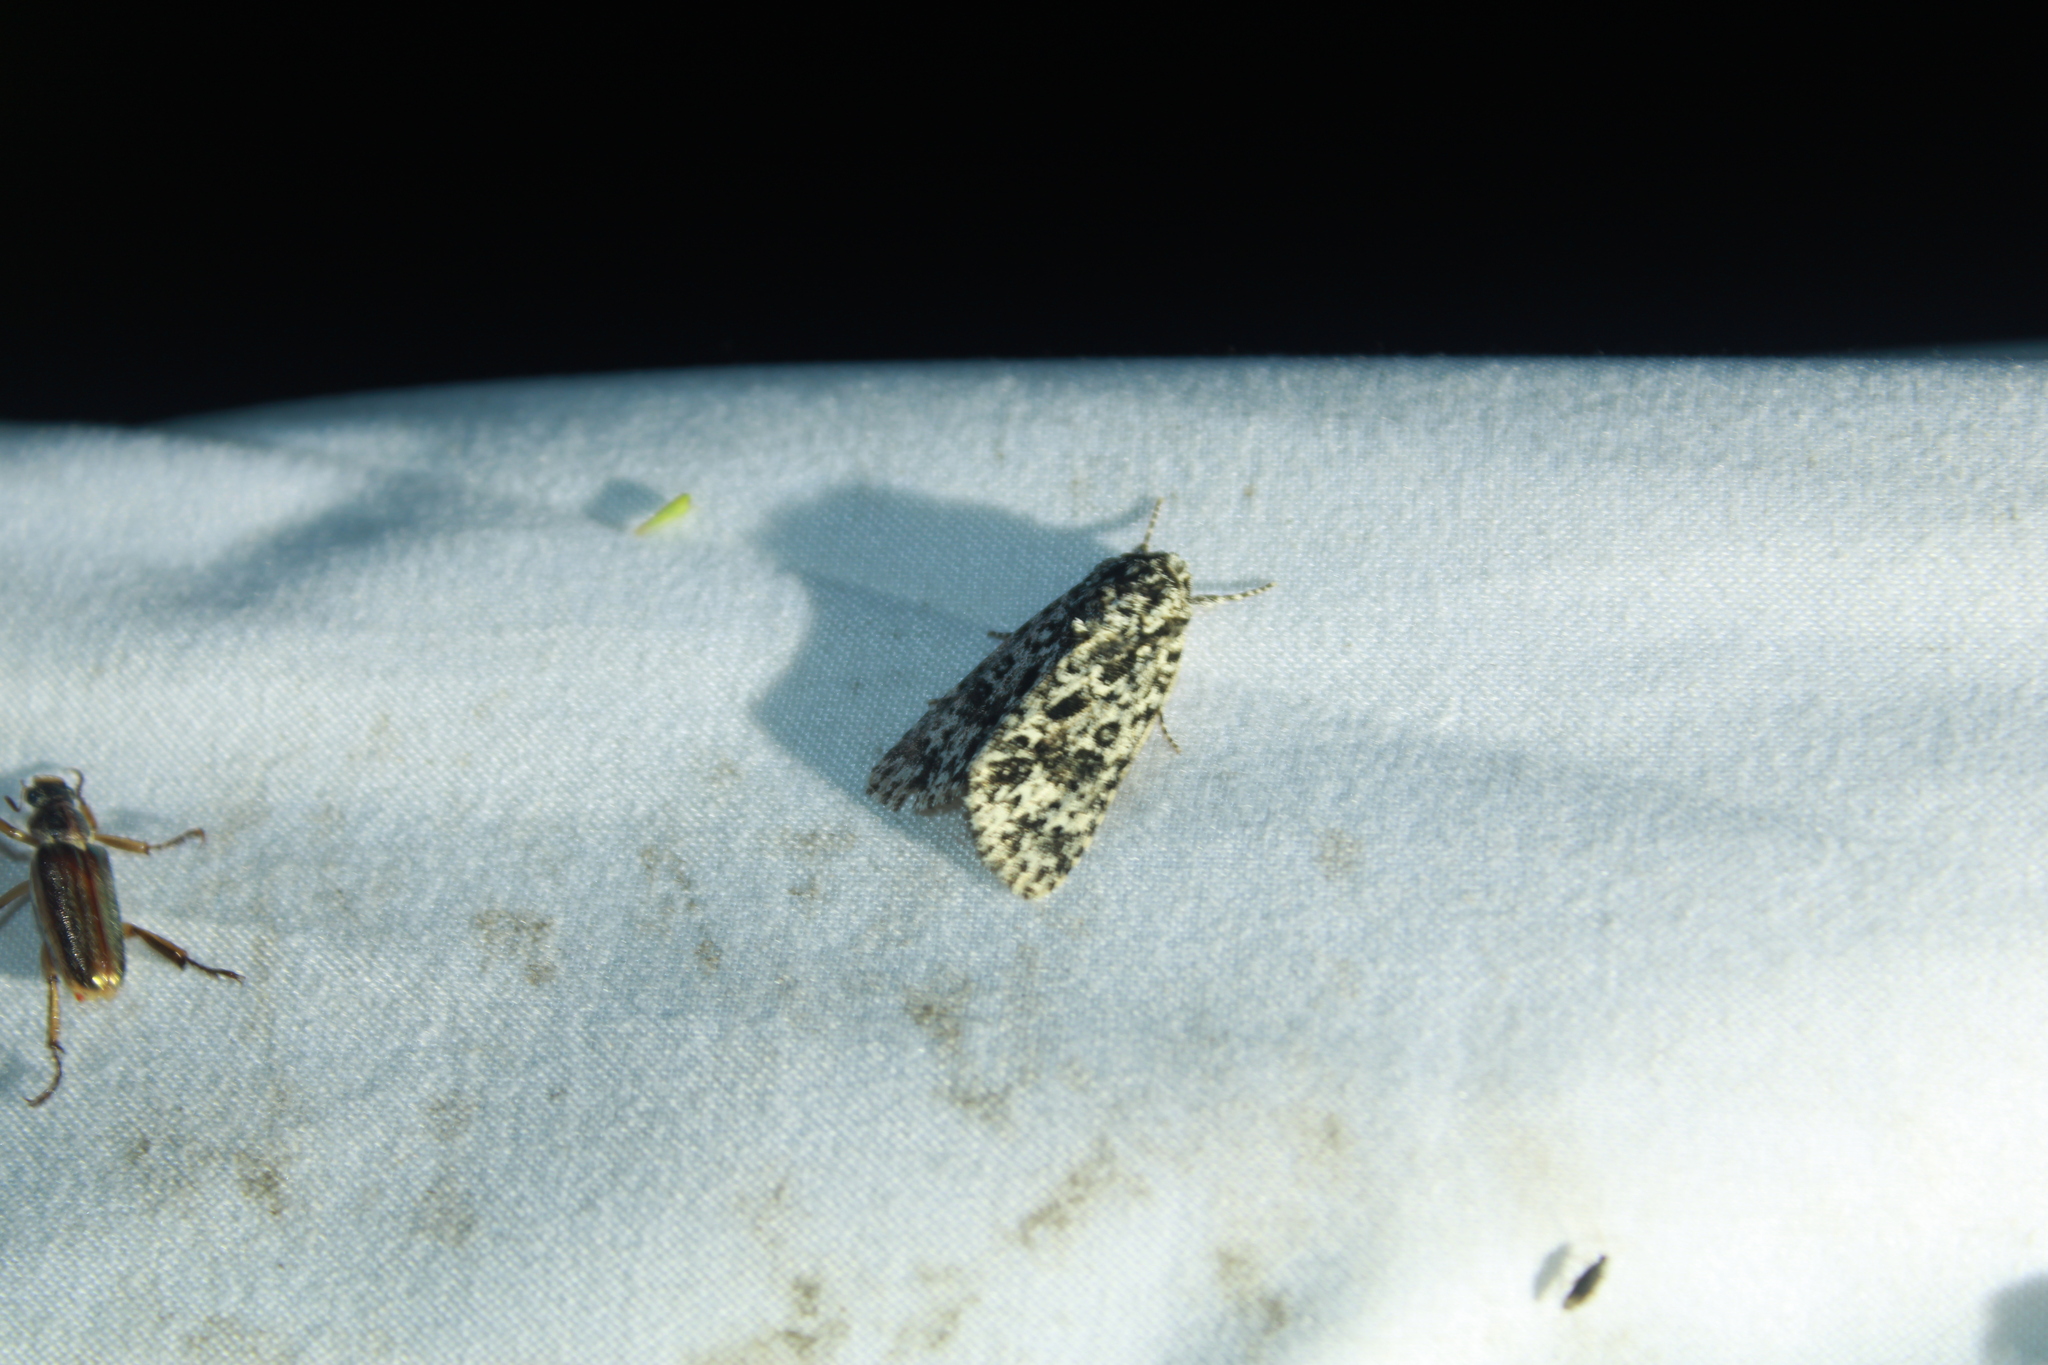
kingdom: Animalia
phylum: Arthropoda
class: Insecta
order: Lepidoptera
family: Noctuidae
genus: Acronicta
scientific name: Acronicta noctivaga
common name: Night-wandering dagger
